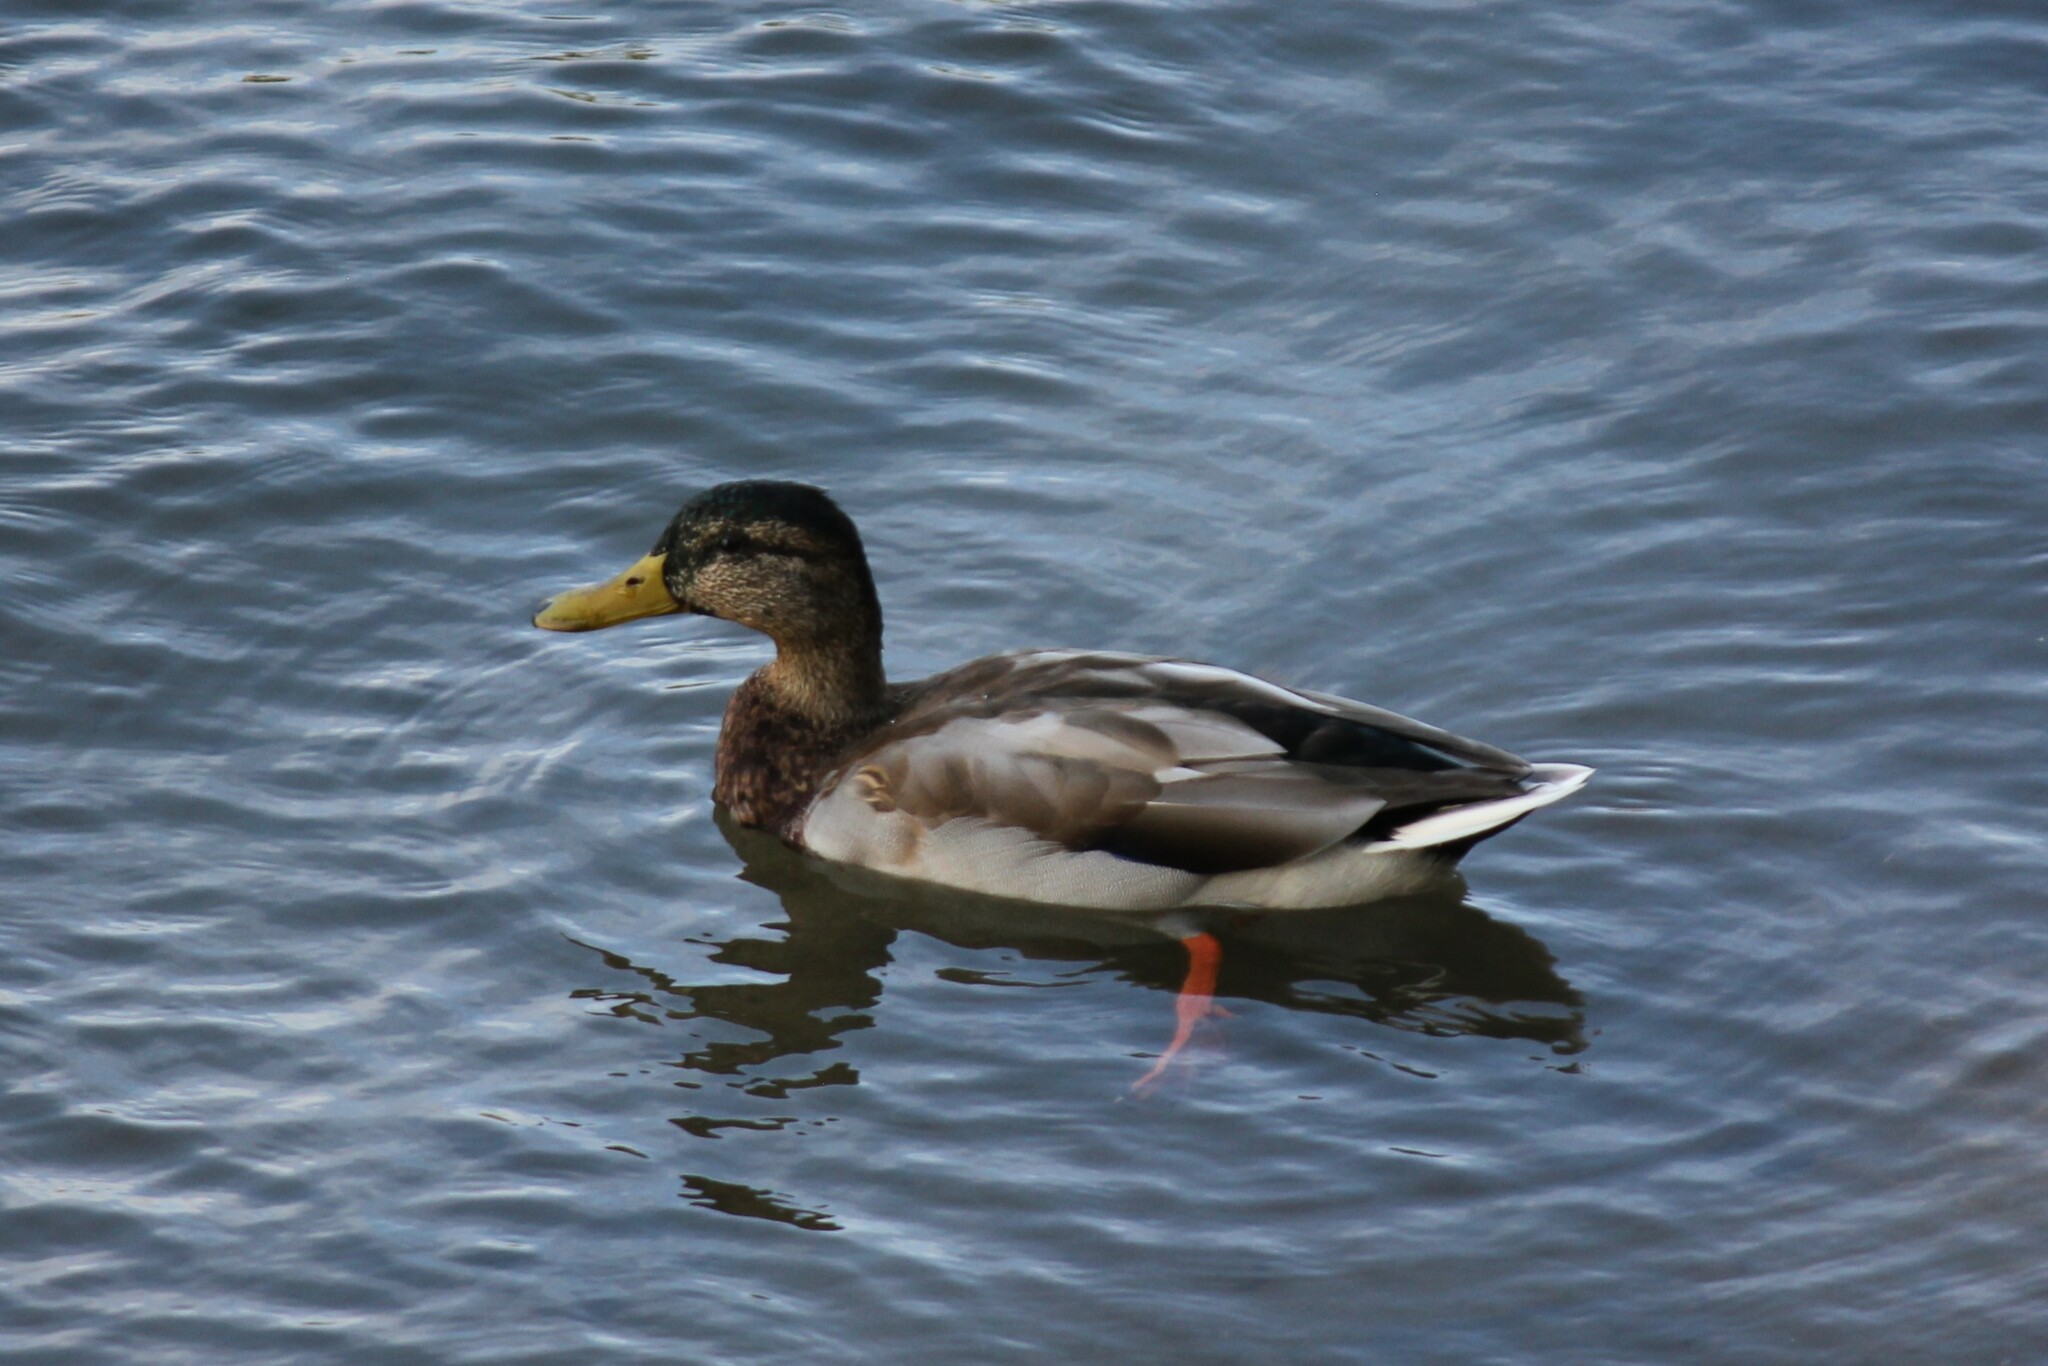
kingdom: Animalia
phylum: Chordata
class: Aves
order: Anseriformes
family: Anatidae
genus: Anas
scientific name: Anas platyrhynchos
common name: Mallard
